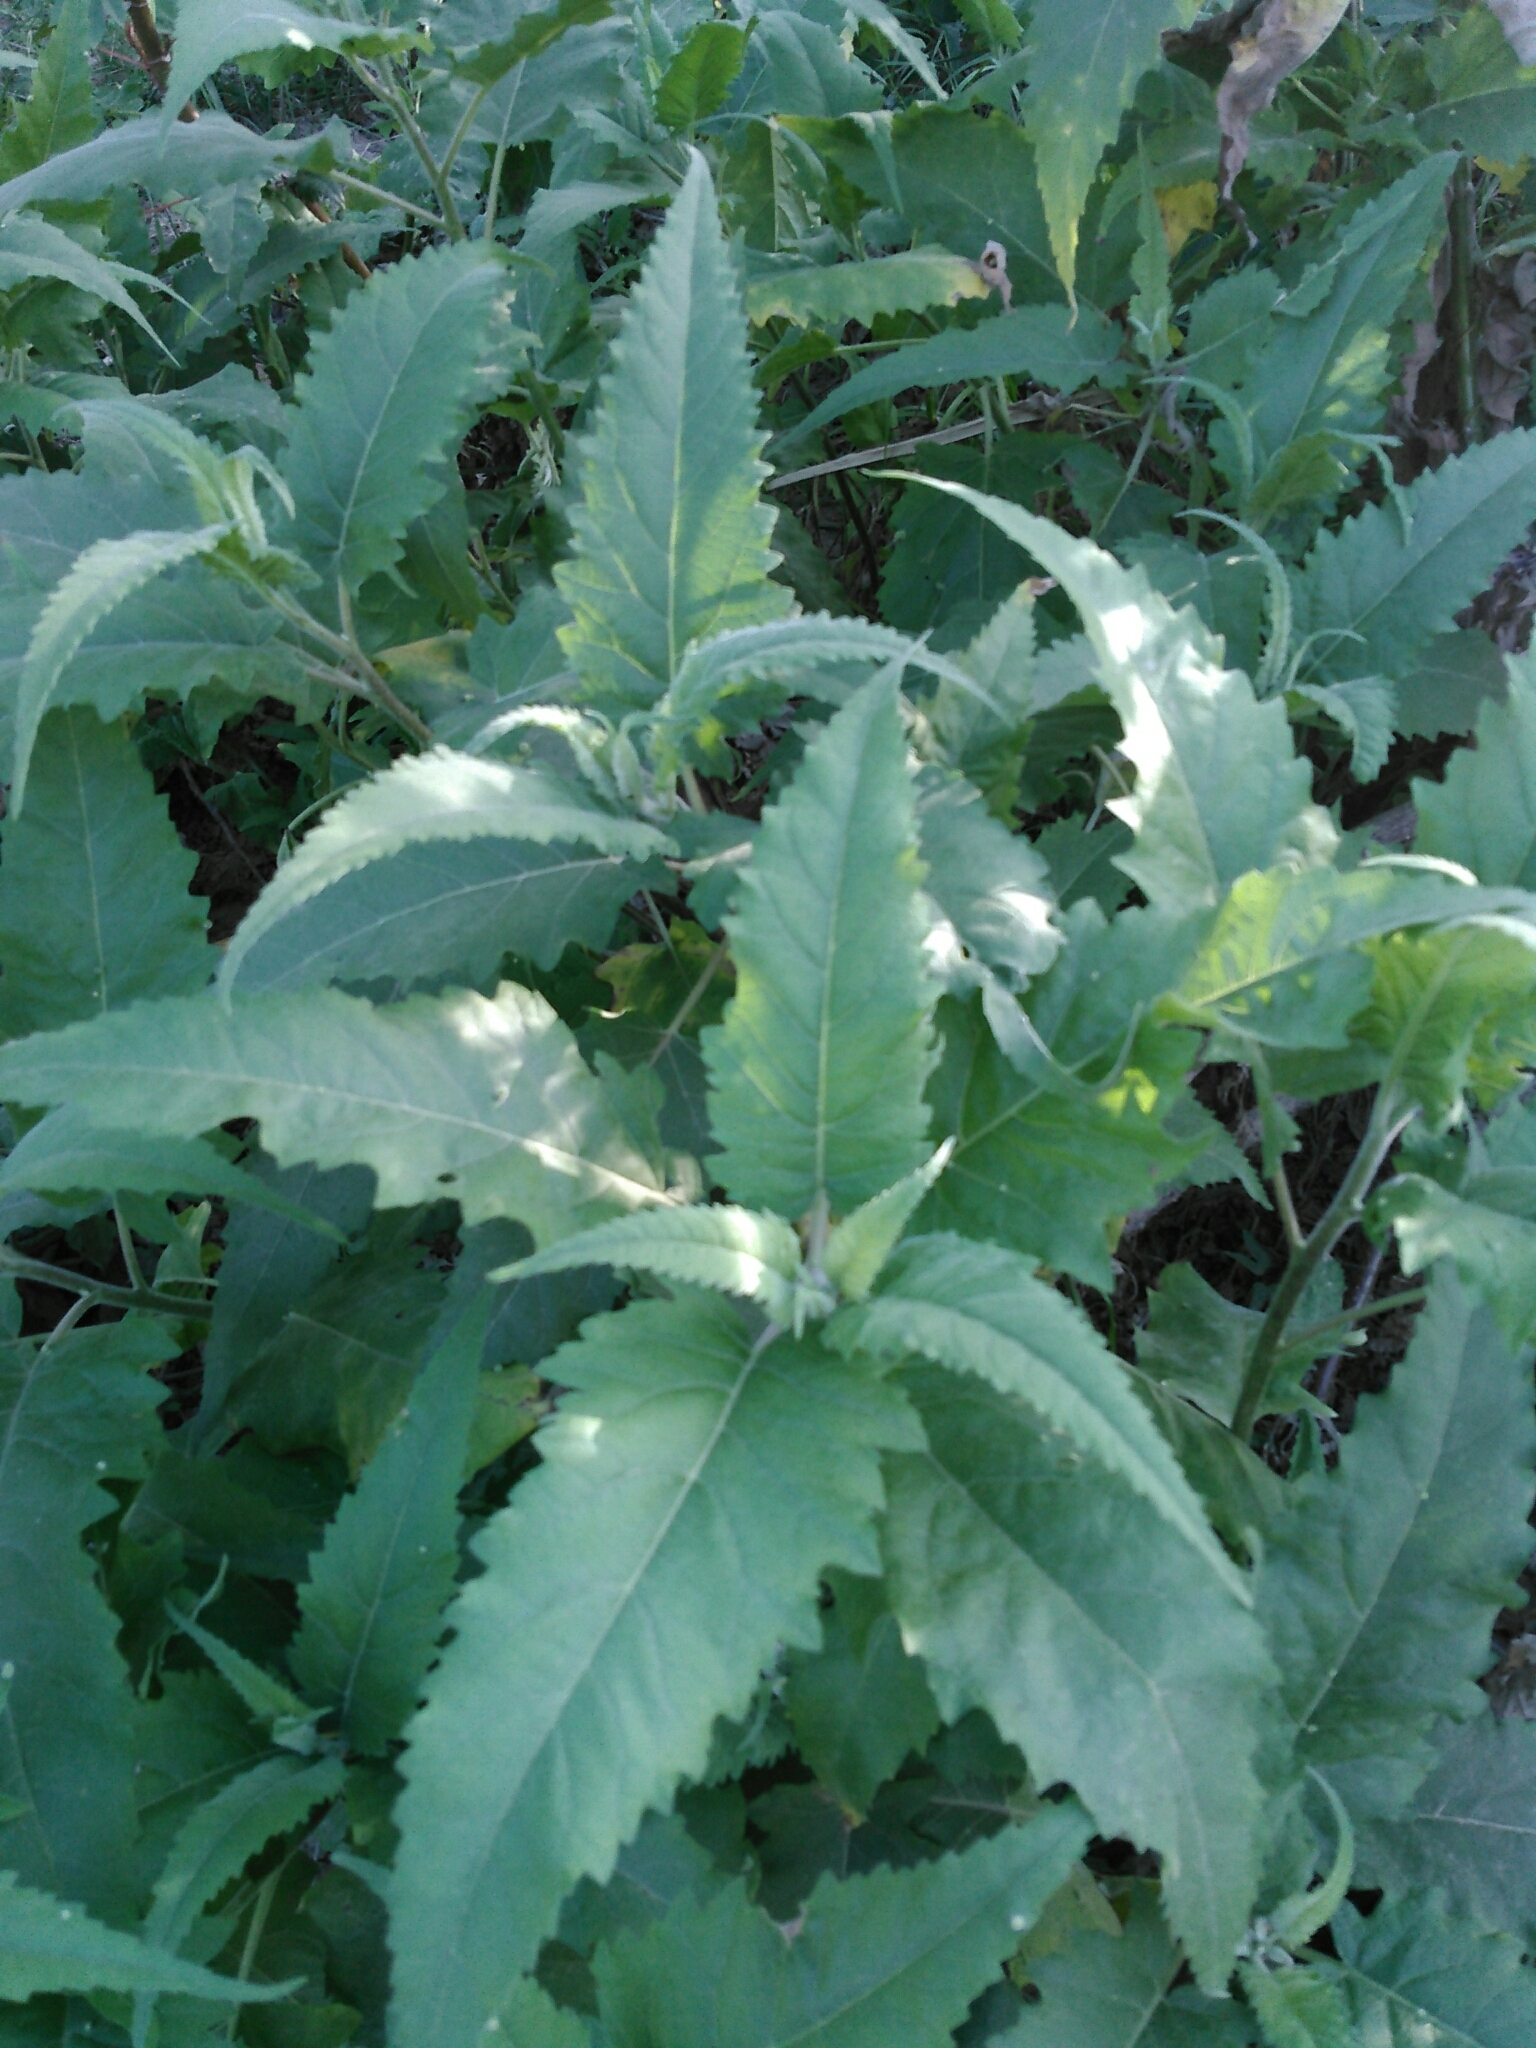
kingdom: Plantae
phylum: Tracheophyta
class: Magnoliopsida
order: Asterales
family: Asteraceae
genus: Ambrosia
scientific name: Ambrosia ambrosioides
